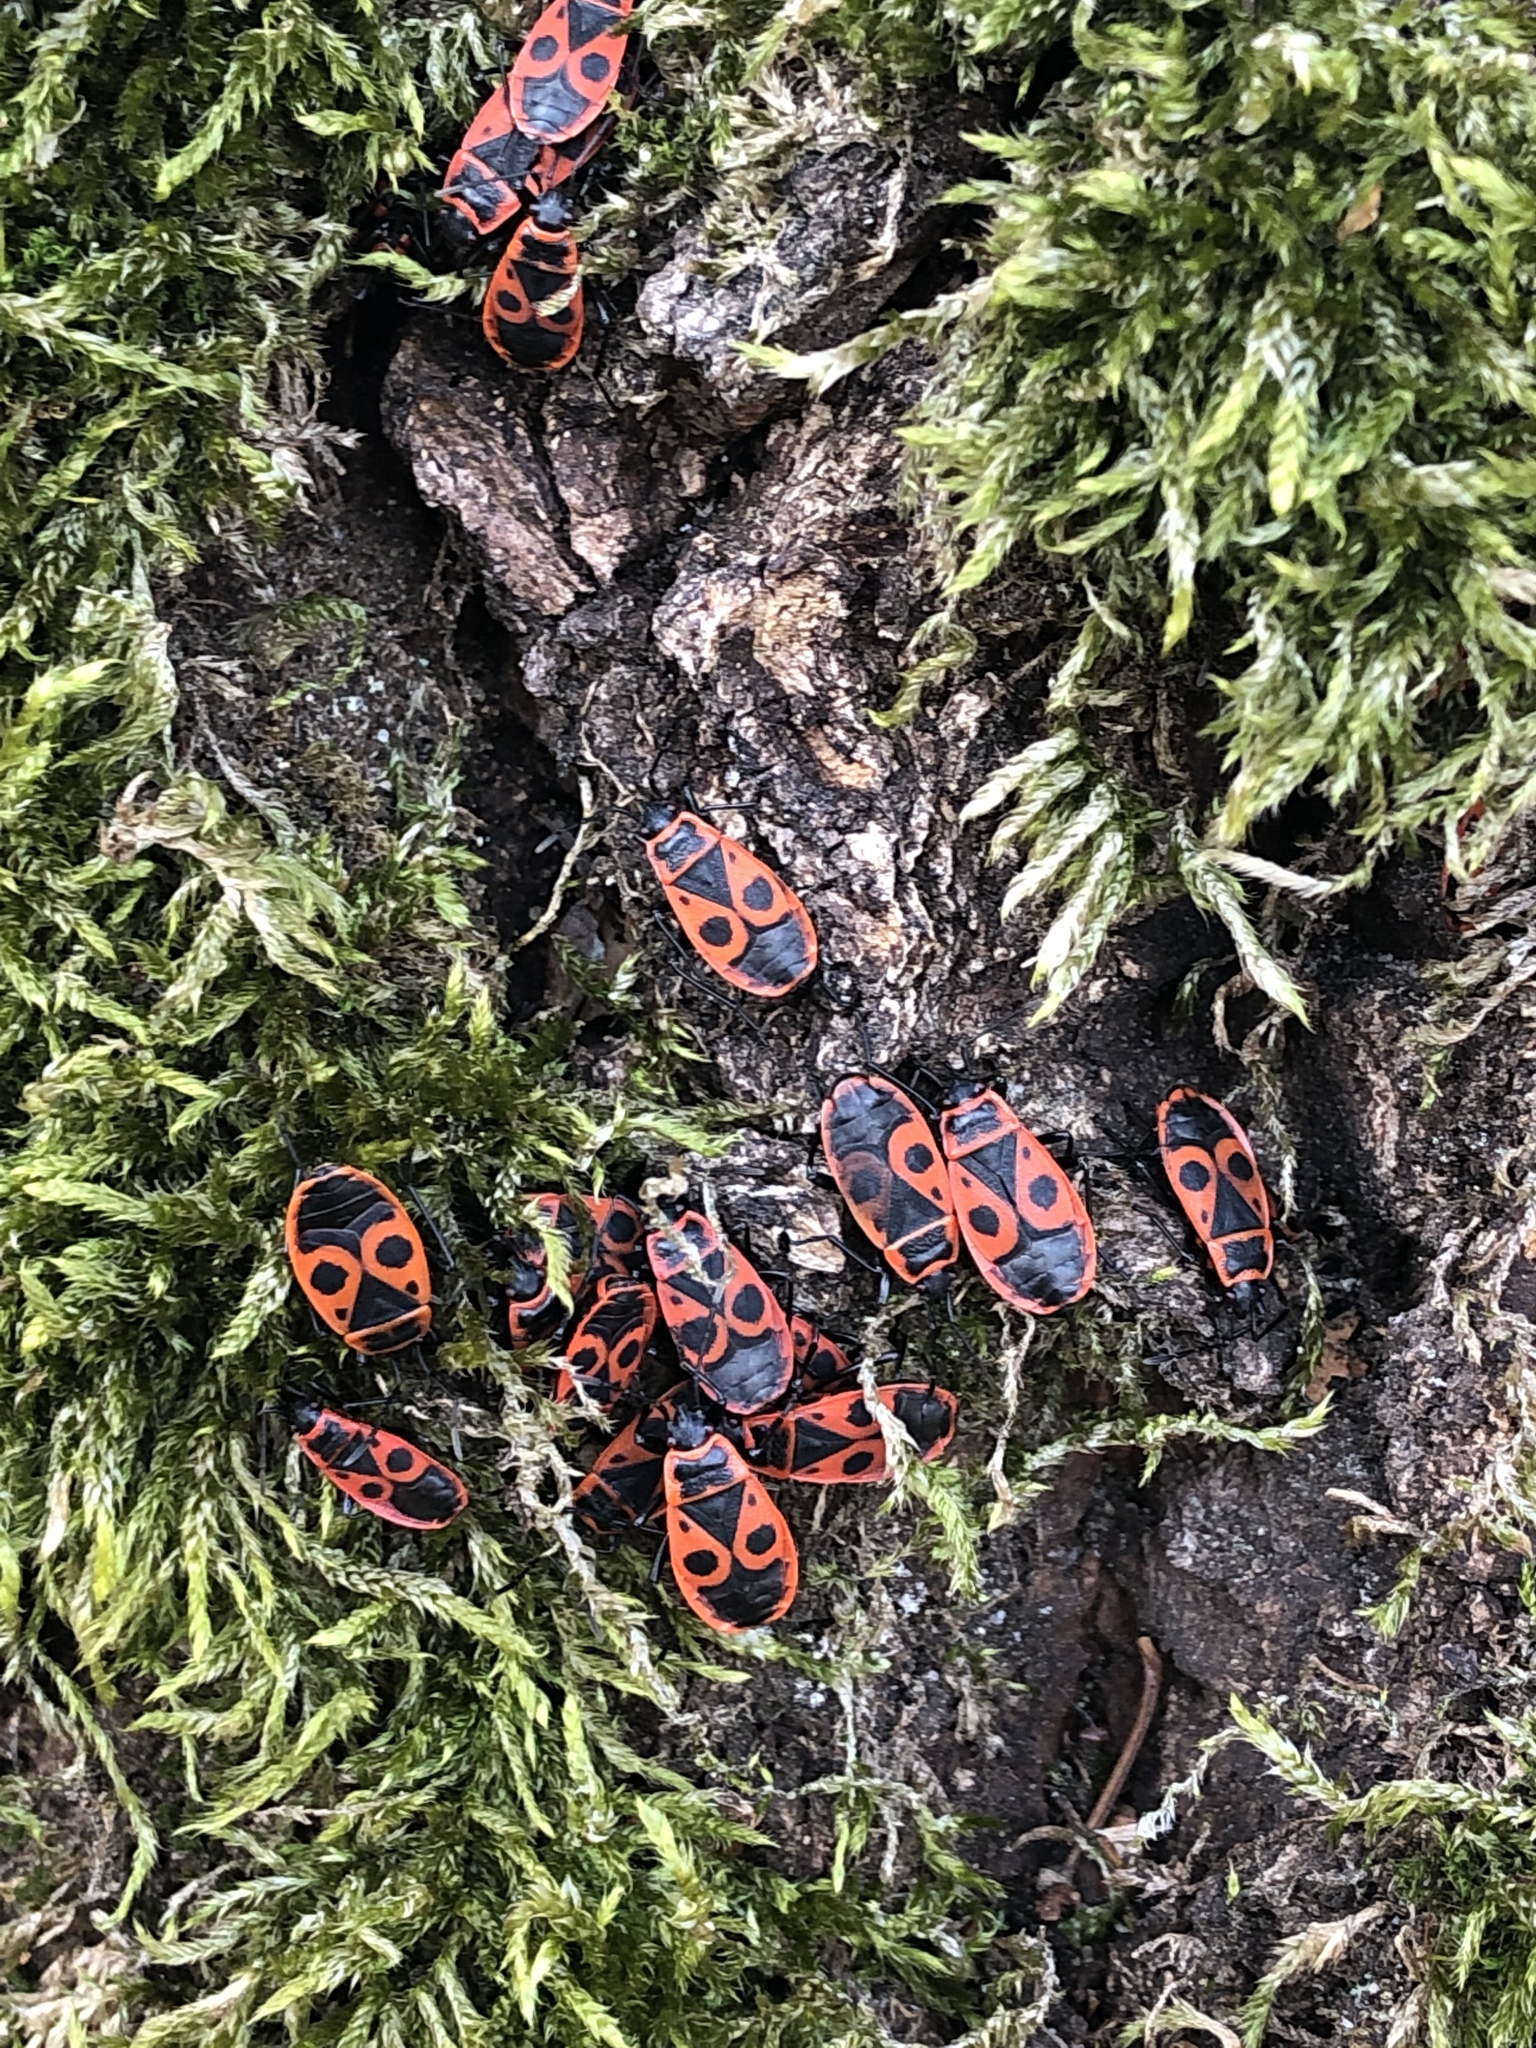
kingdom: Animalia
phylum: Arthropoda
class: Insecta
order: Hemiptera
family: Pyrrhocoridae
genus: Pyrrhocoris
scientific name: Pyrrhocoris apterus
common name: Firebug
